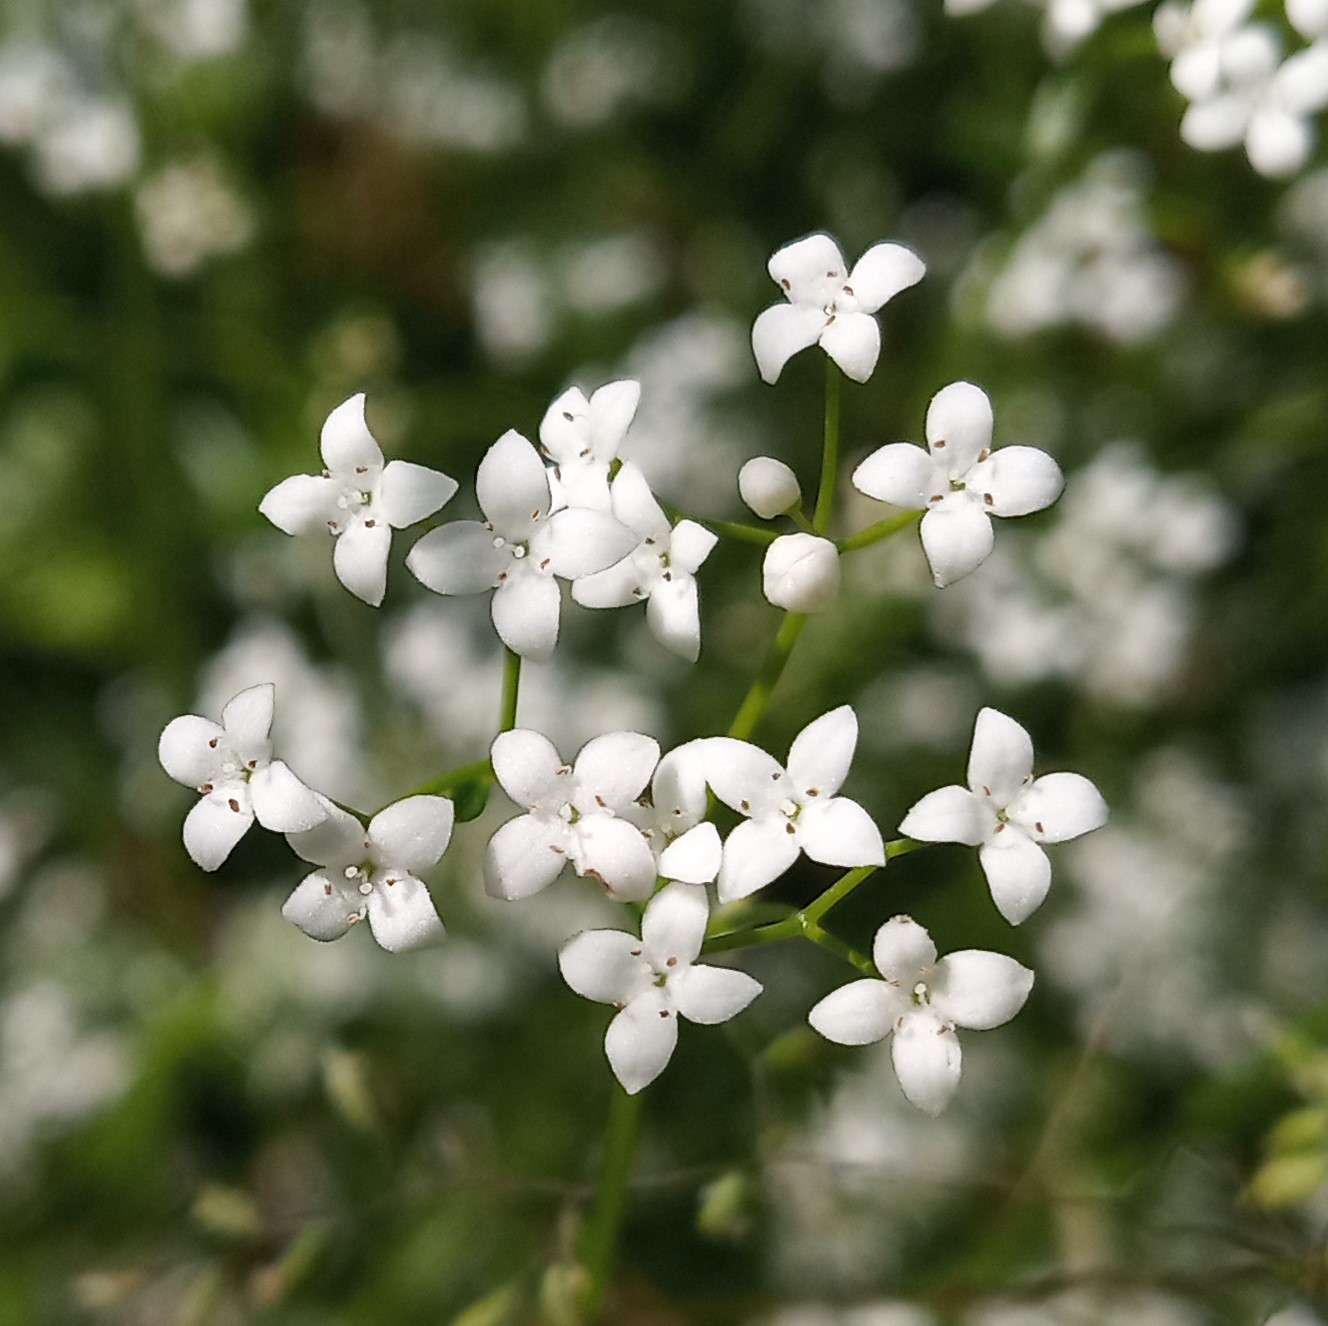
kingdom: Plantae
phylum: Tracheophyta
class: Magnoliopsida
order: Gentianales
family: Rubiaceae
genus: Galium
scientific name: Galium palustre
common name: Common marsh-bedstraw
